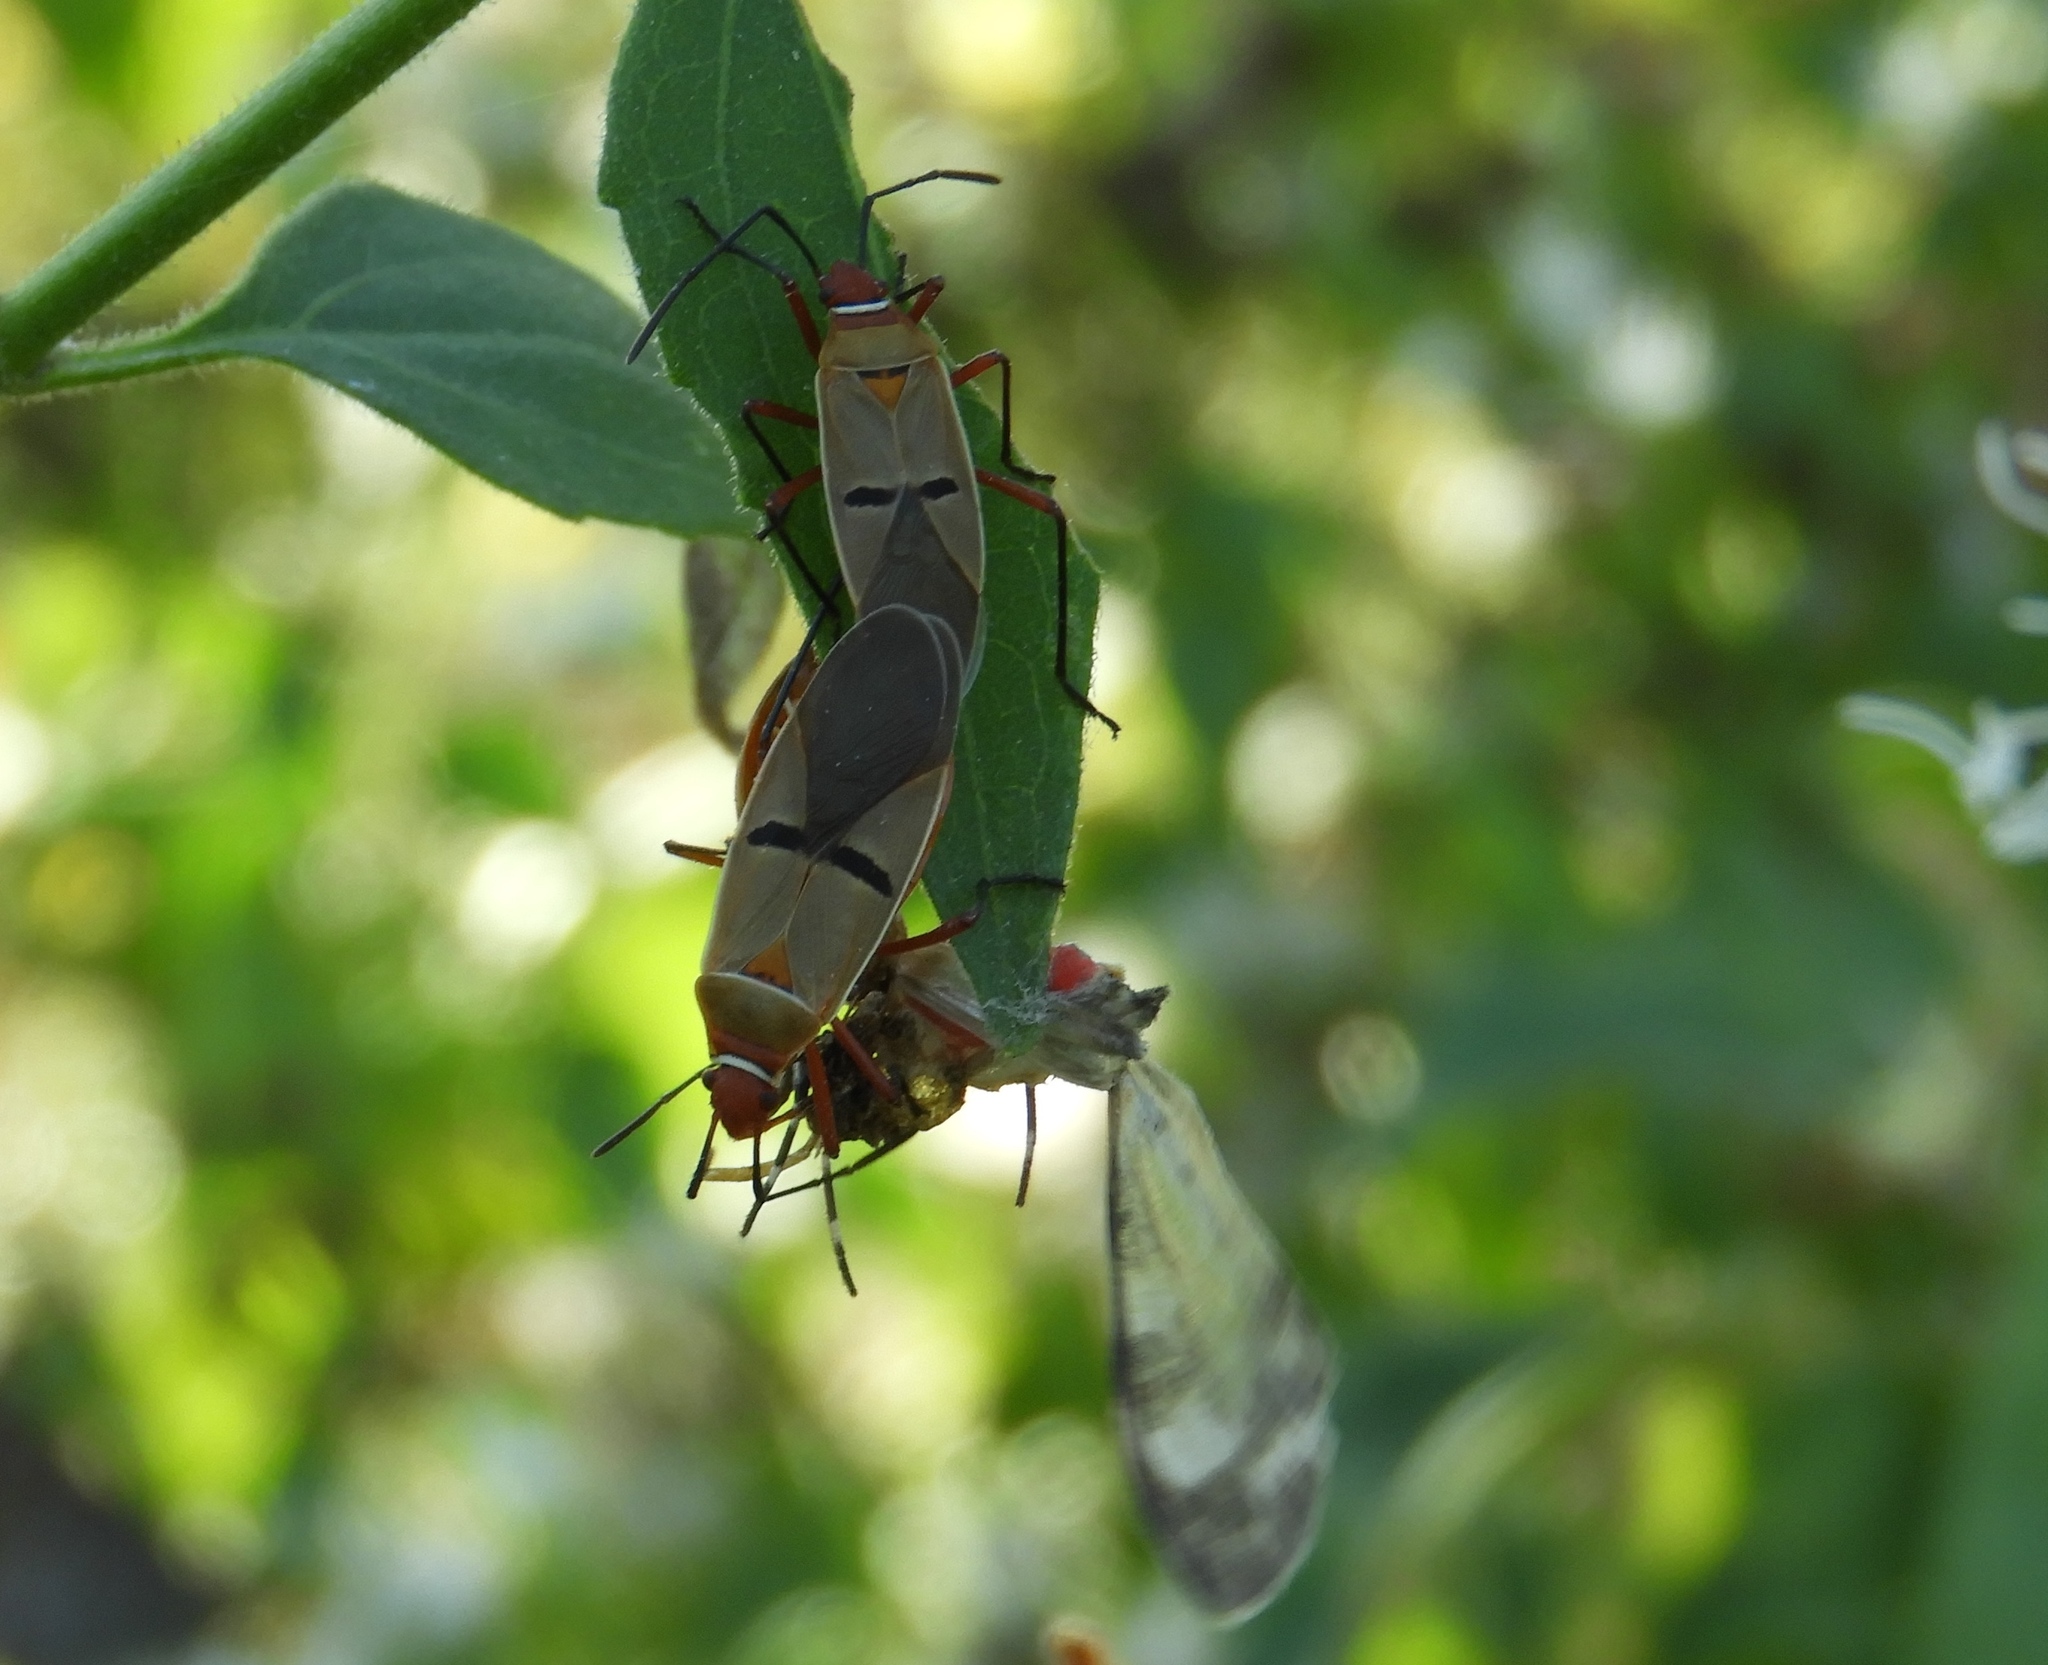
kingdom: Animalia
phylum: Arthropoda
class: Insecta
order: Hemiptera
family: Pyrrhocoridae
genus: Dysdercus
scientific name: Dysdercus
